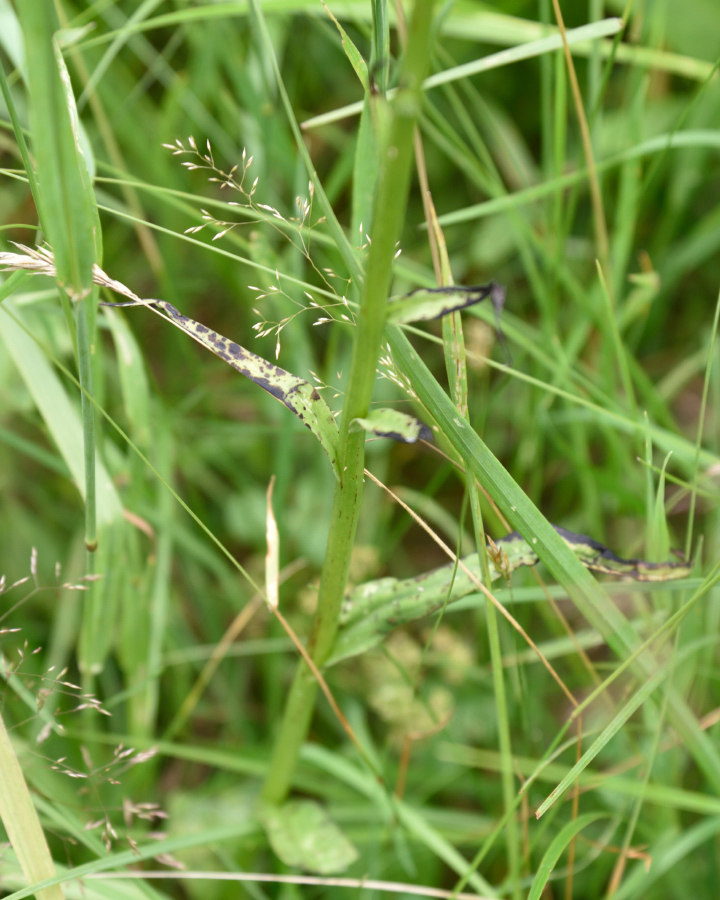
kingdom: Plantae
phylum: Tracheophyta
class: Liliopsida
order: Asparagales
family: Orchidaceae
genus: Dactylorhiza
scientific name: Dactylorhiza maculata
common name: Heath spotted-orchid
